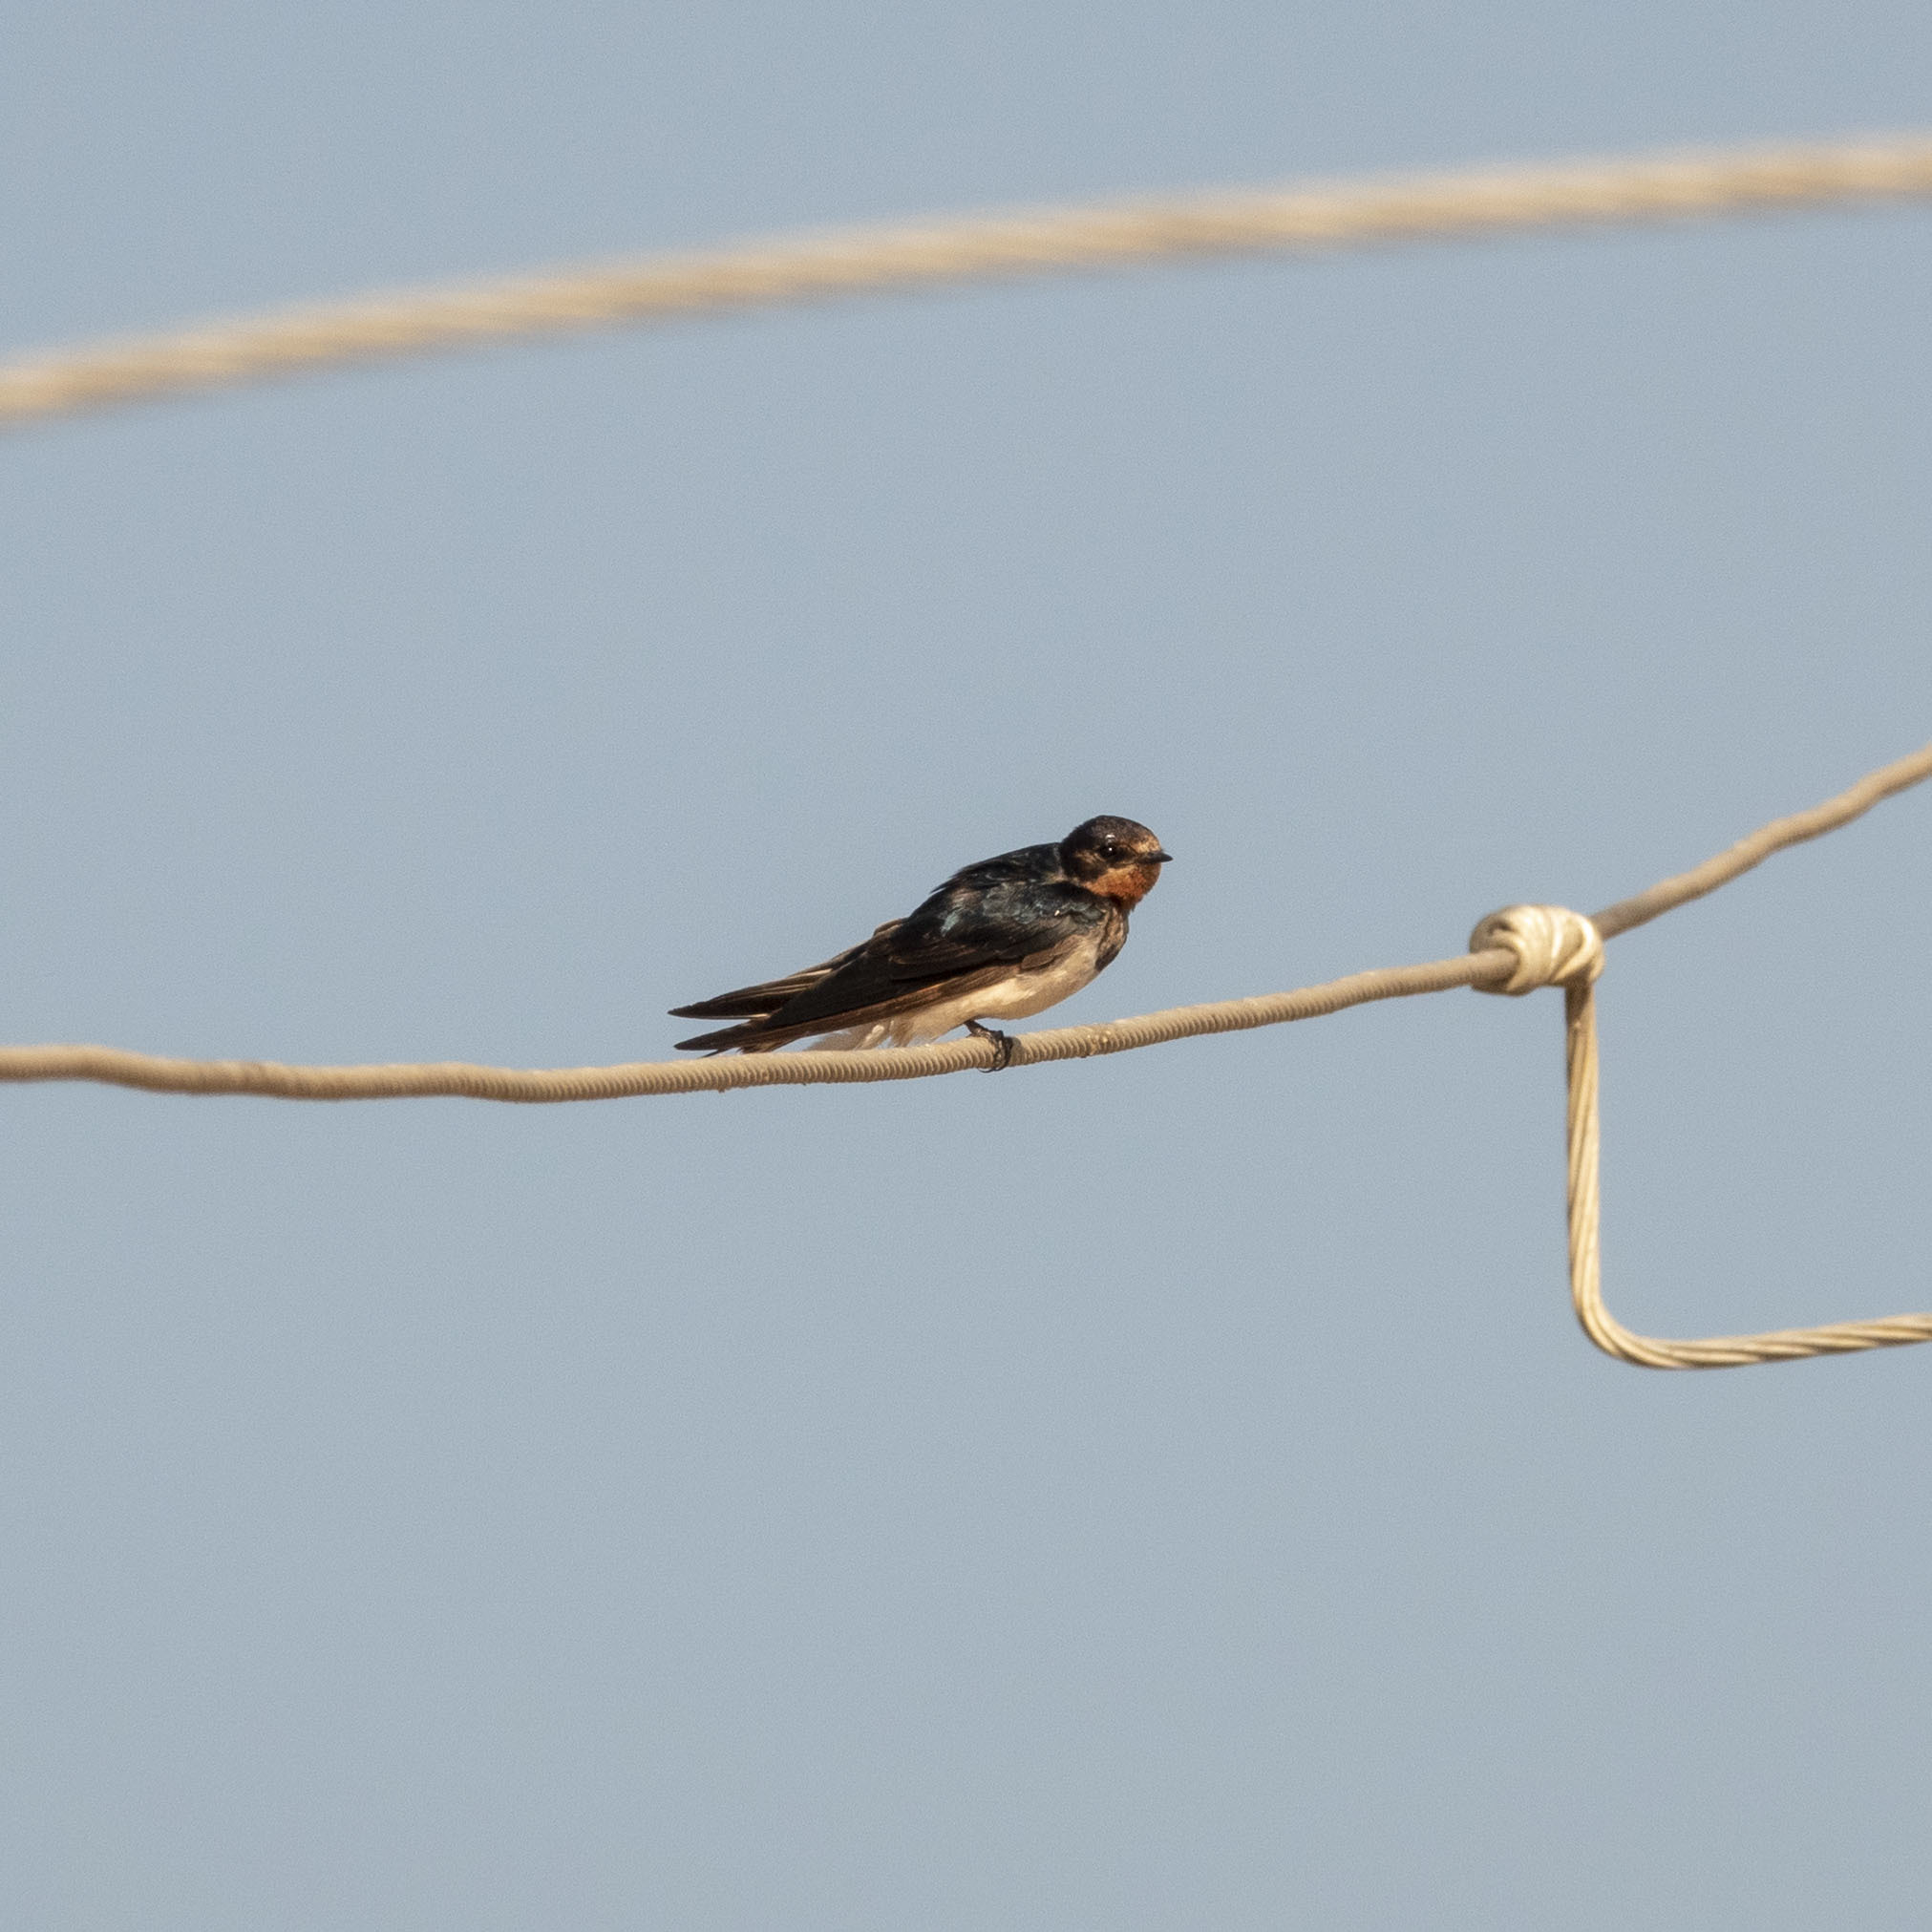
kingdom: Animalia
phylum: Chordata
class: Aves
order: Passeriformes
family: Hirundinidae
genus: Hirundo
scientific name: Hirundo rustica
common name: Barn swallow
